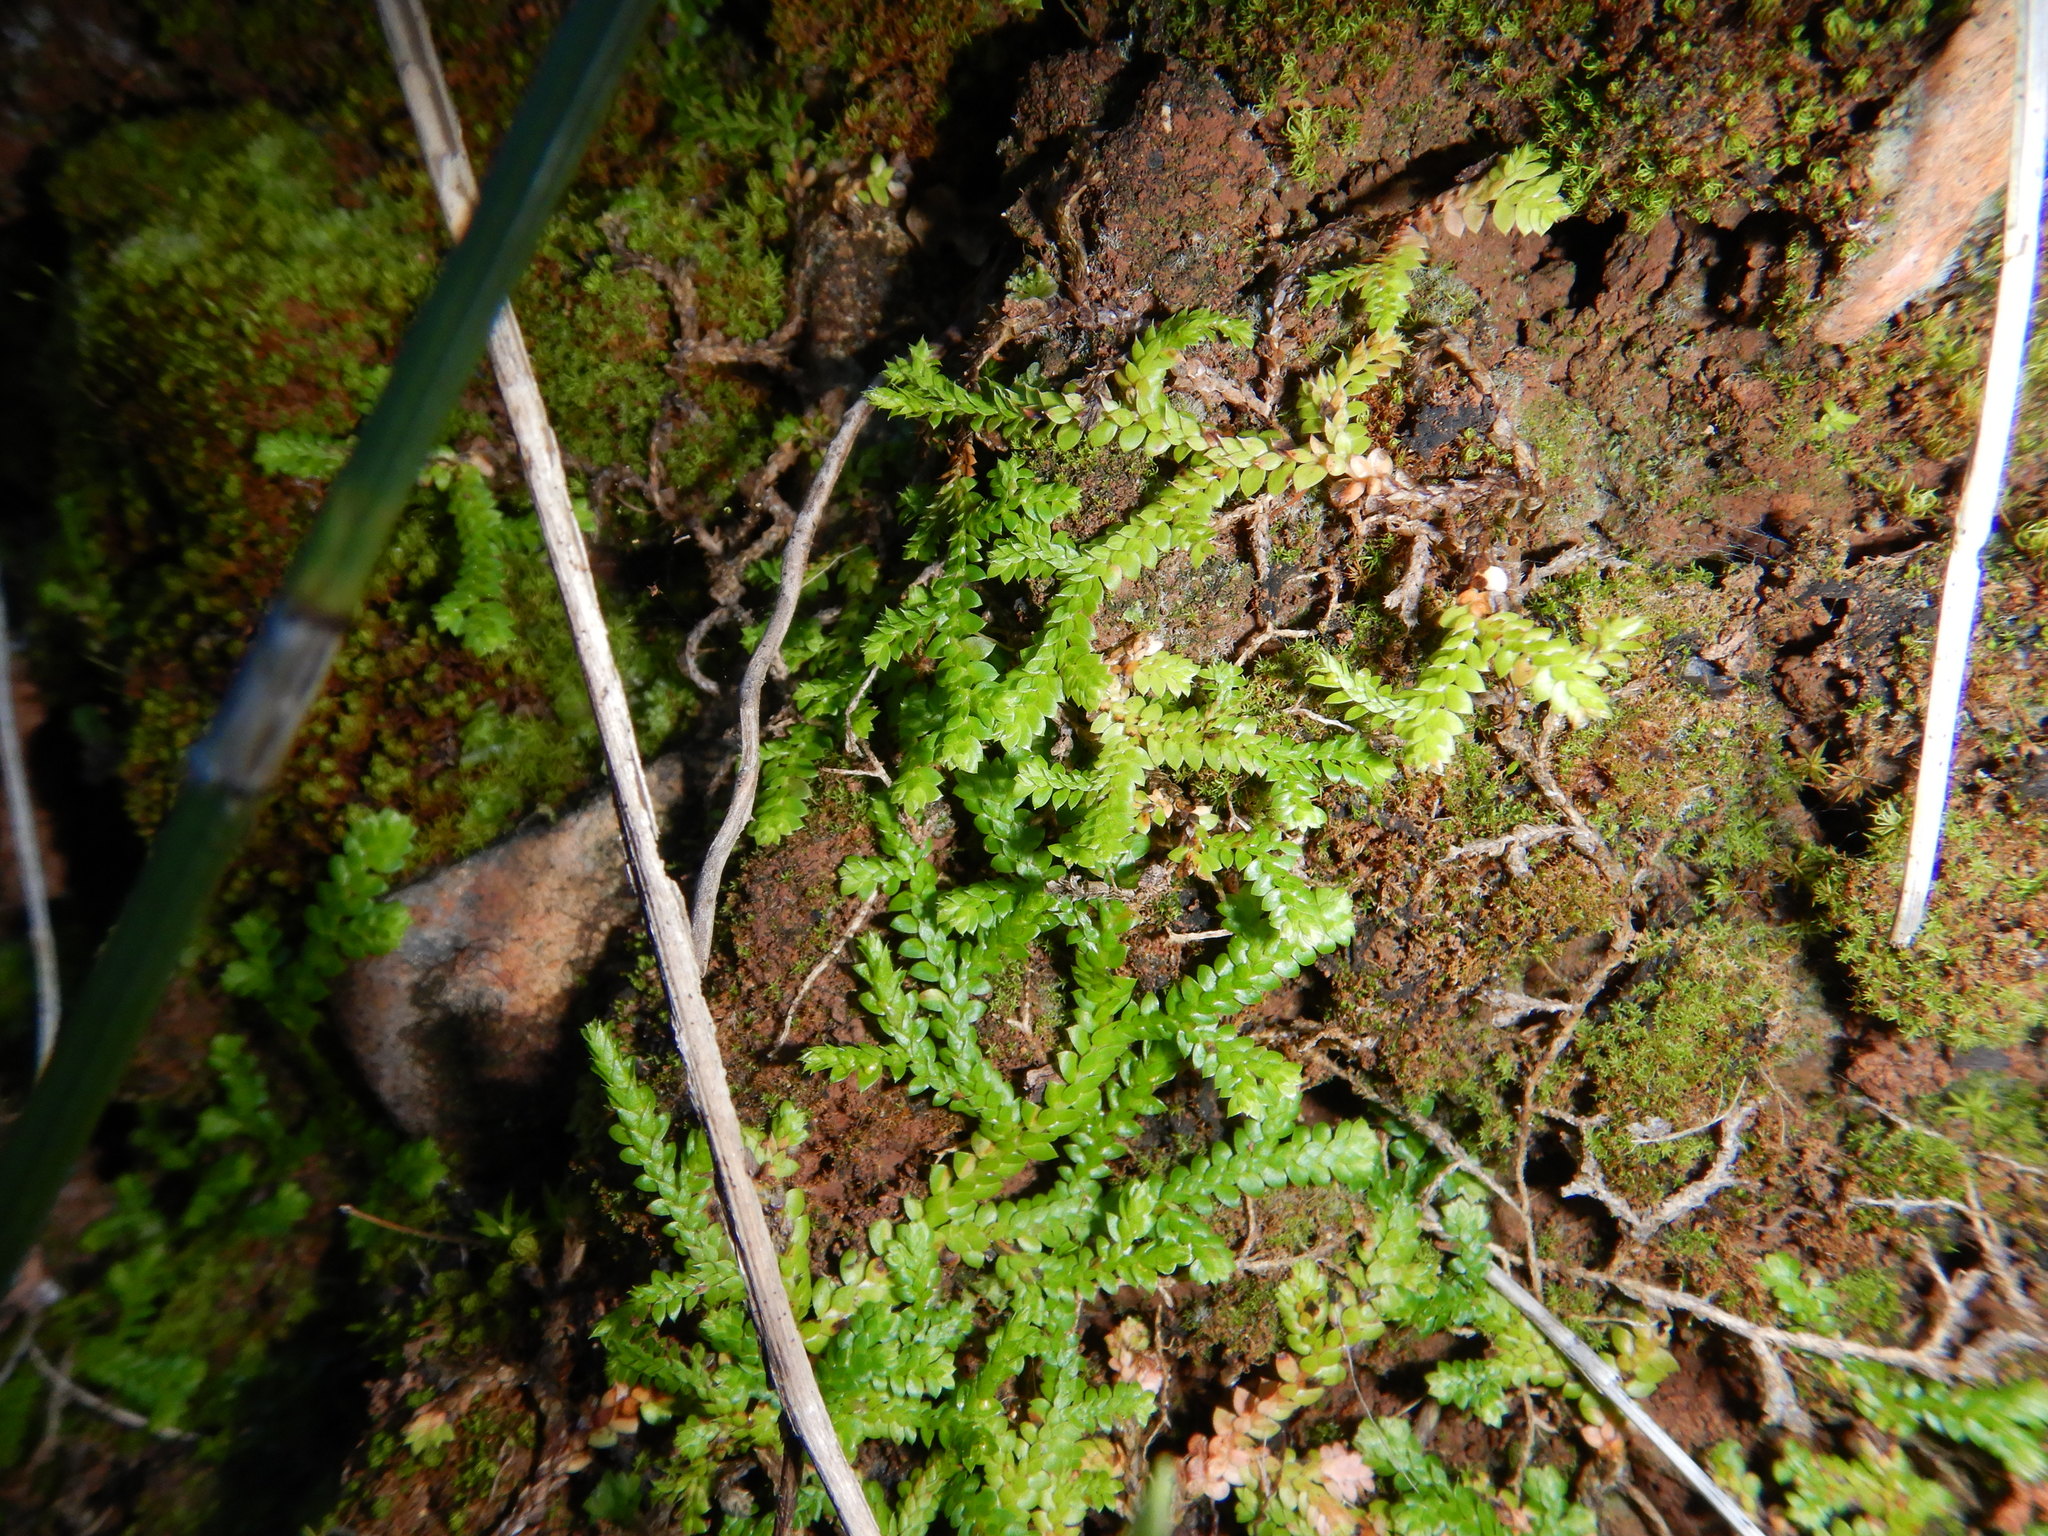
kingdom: Plantae
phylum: Tracheophyta
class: Lycopodiopsida
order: Selaginellales
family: Selaginellaceae
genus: Selaginella
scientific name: Selaginella denticulata
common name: Toothed-leaved clubmoss
